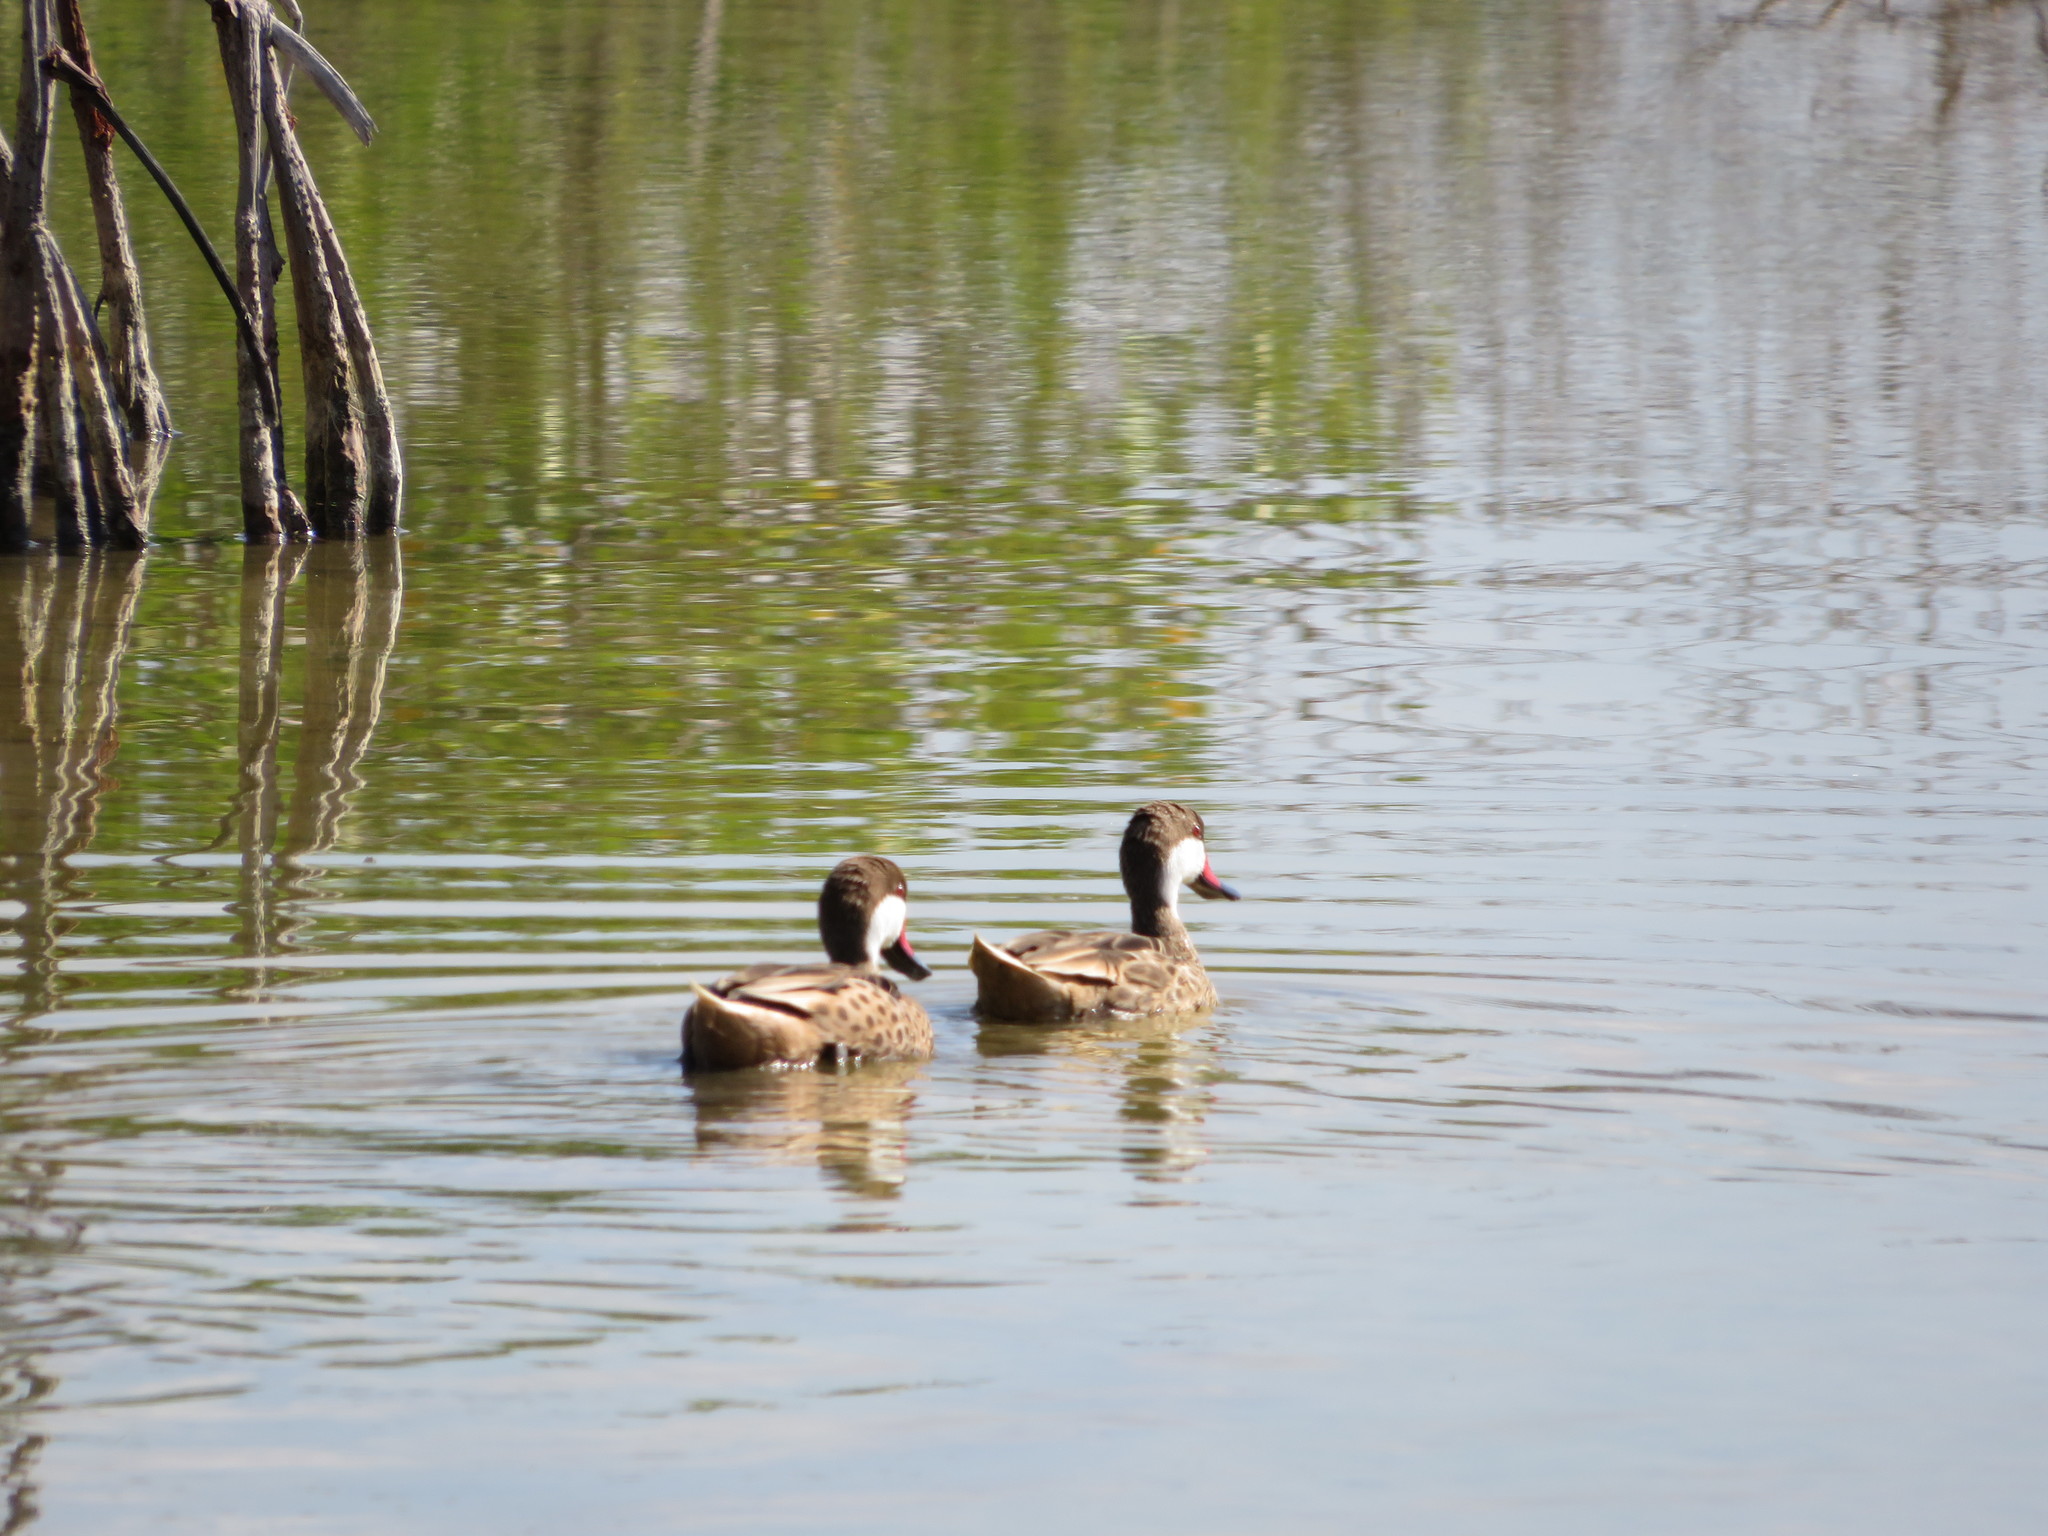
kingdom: Animalia
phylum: Chordata
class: Aves
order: Anseriformes
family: Anatidae
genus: Anas
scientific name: Anas bahamensis
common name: White-cheeked pintail
